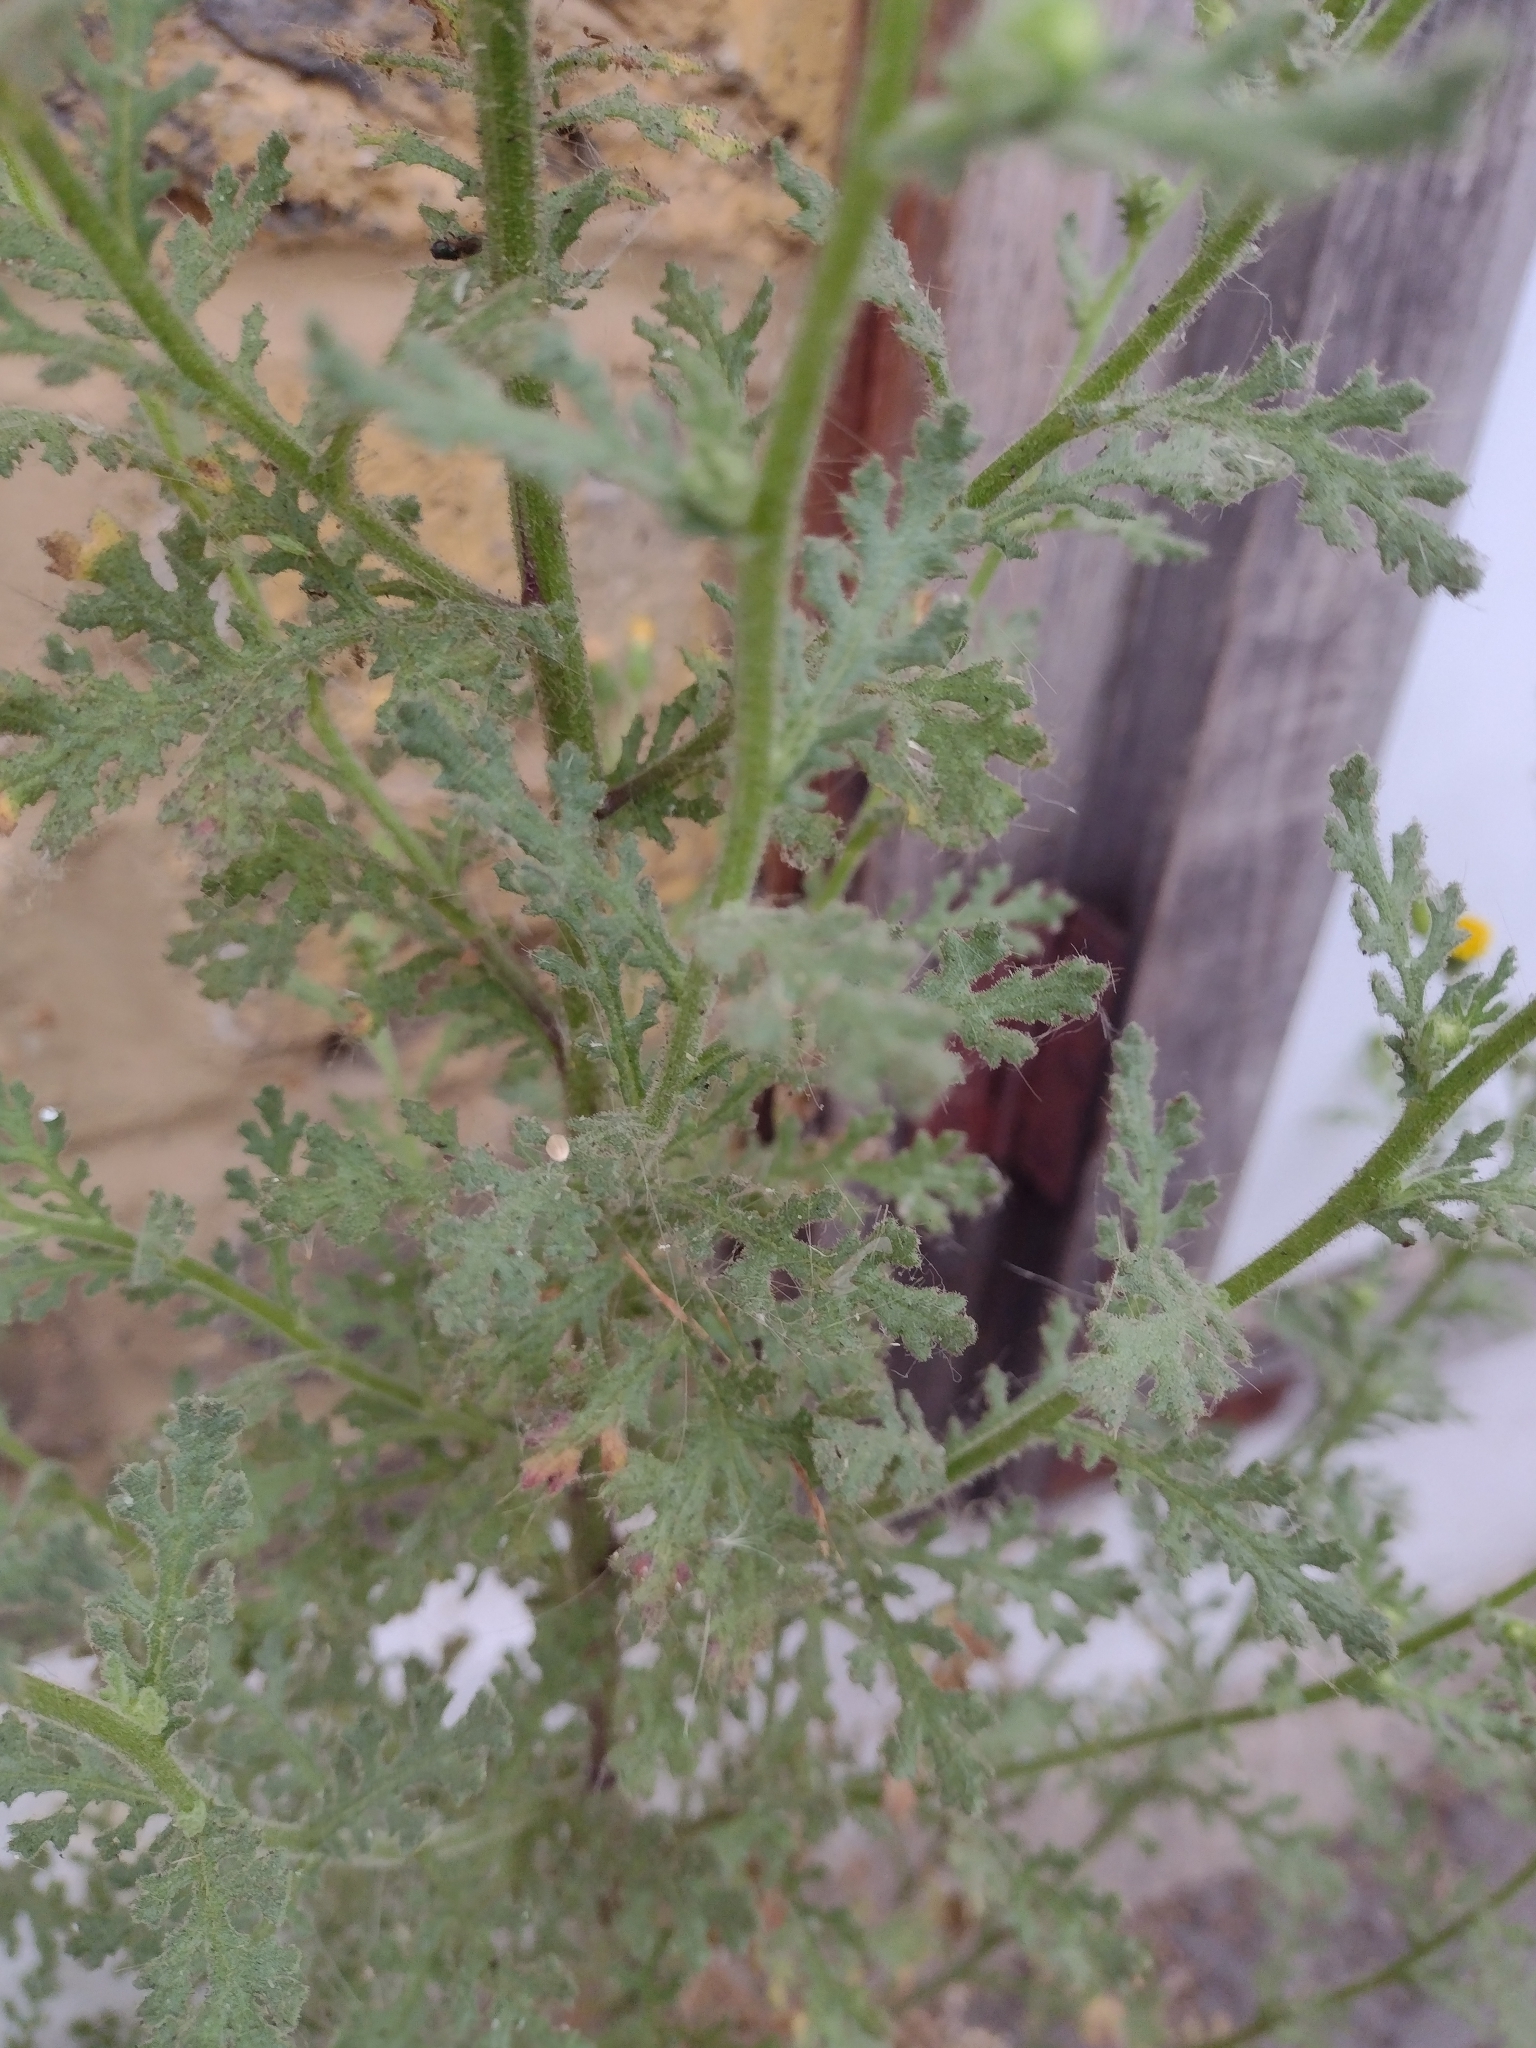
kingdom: Plantae
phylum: Tracheophyta
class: Magnoliopsida
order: Asterales
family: Asteraceae
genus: Senecio
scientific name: Senecio viscosus
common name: Sticky groundsel
